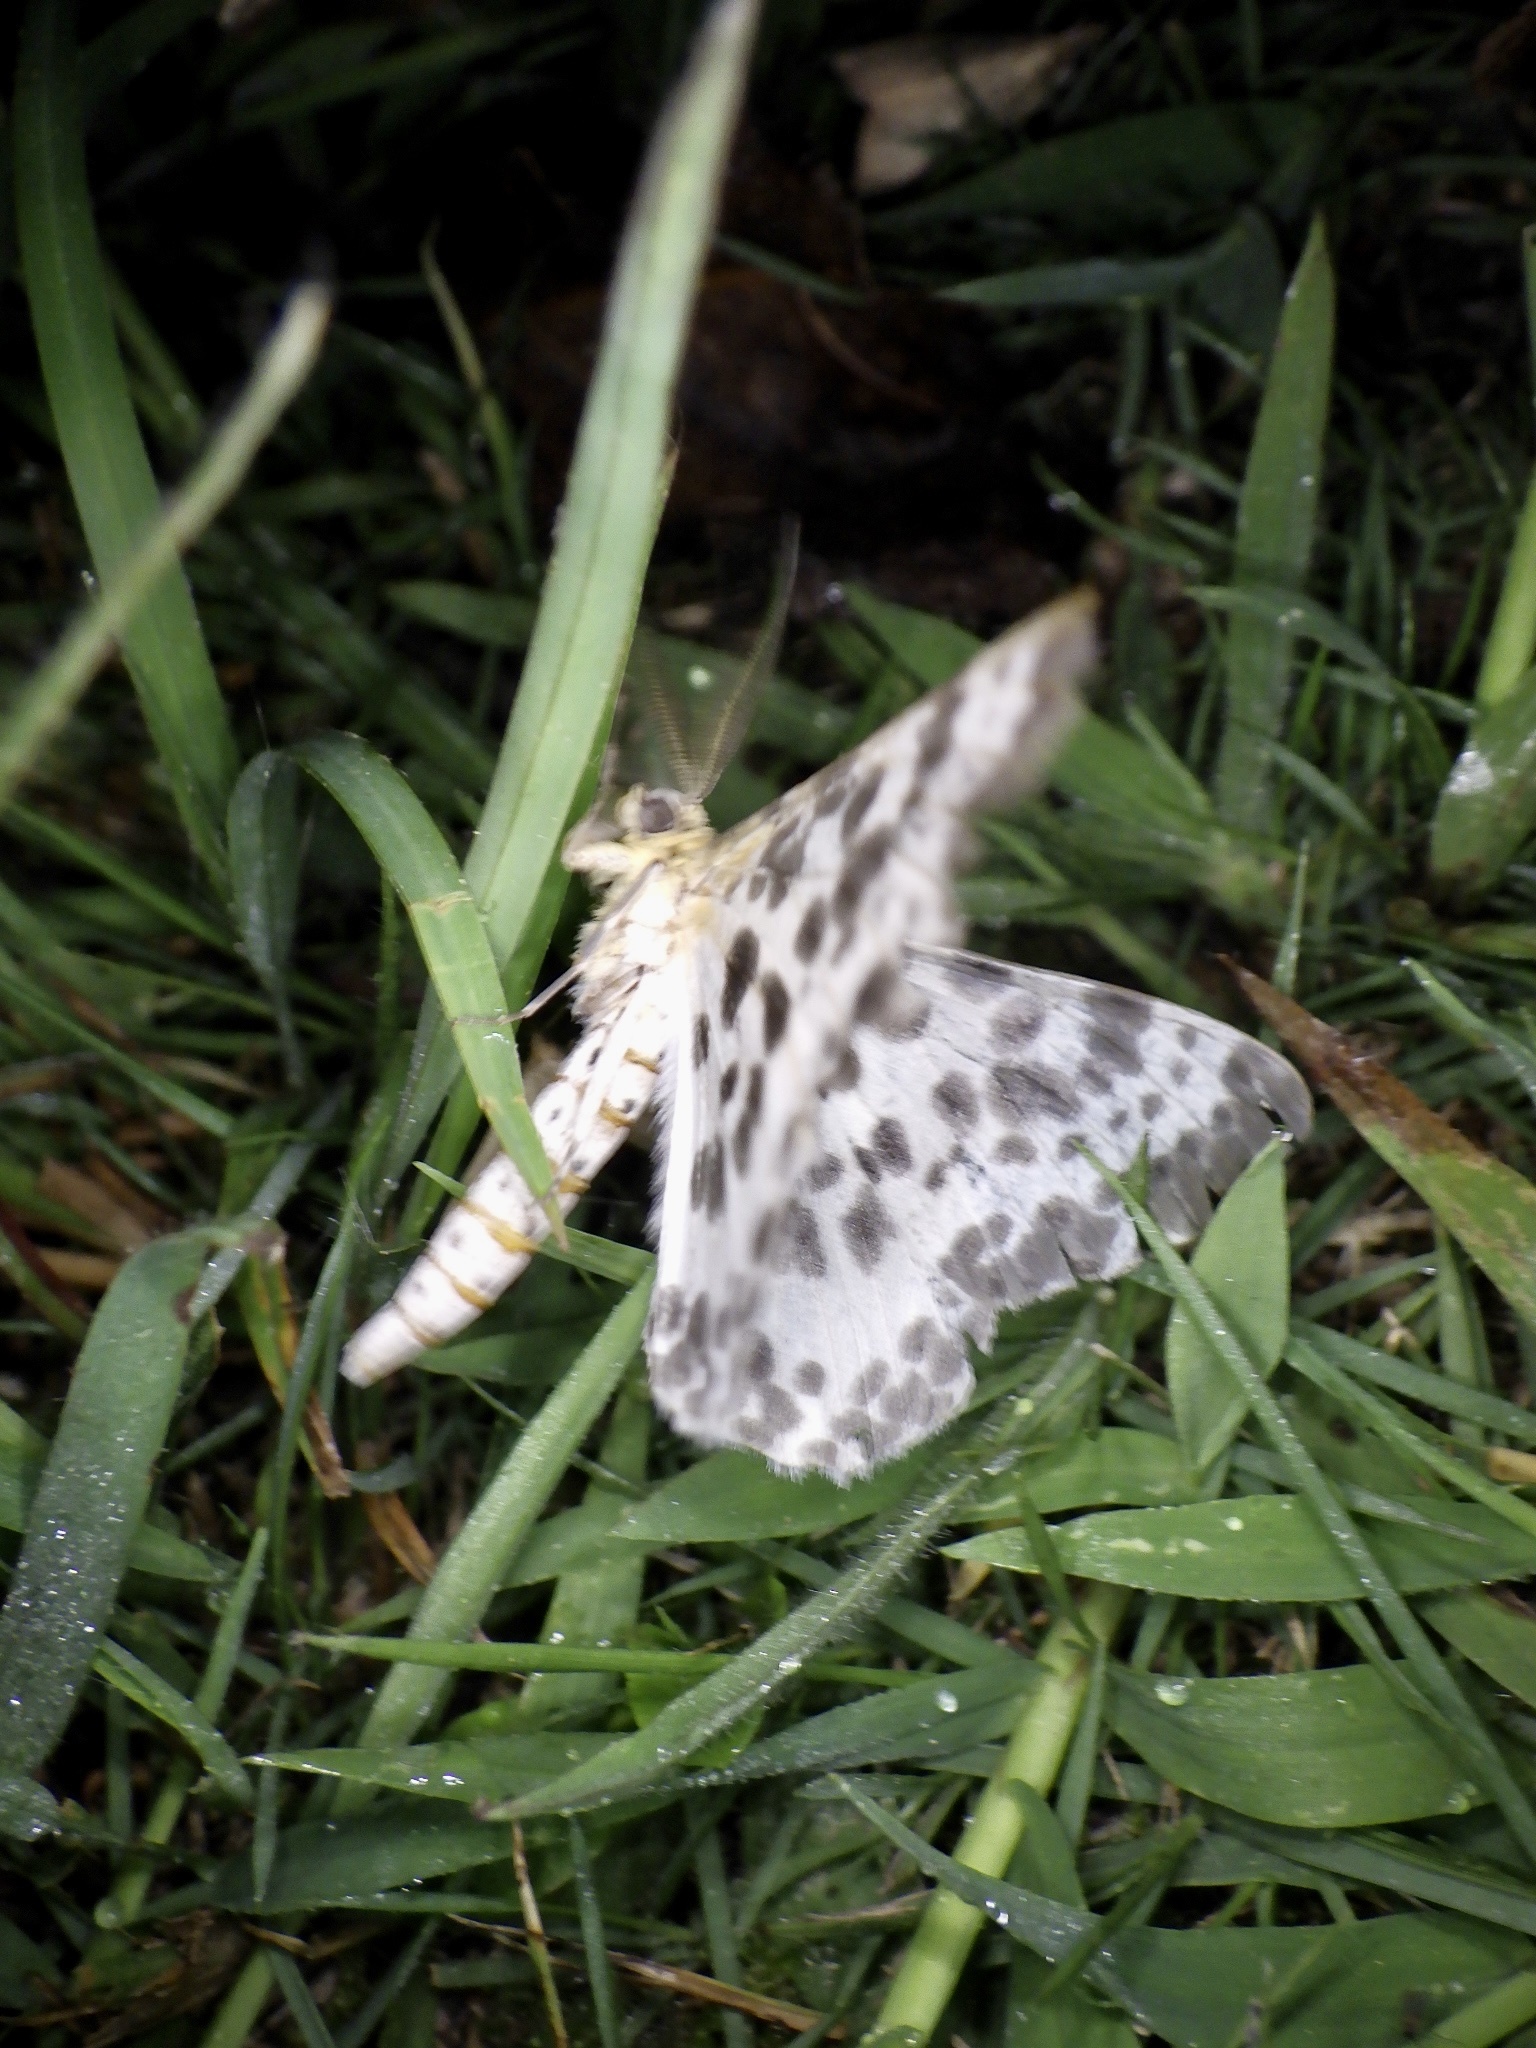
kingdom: Animalia
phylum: Arthropoda
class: Insecta
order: Lepidoptera
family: Geometridae
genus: Metabraxas
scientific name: Metabraxas clerica
